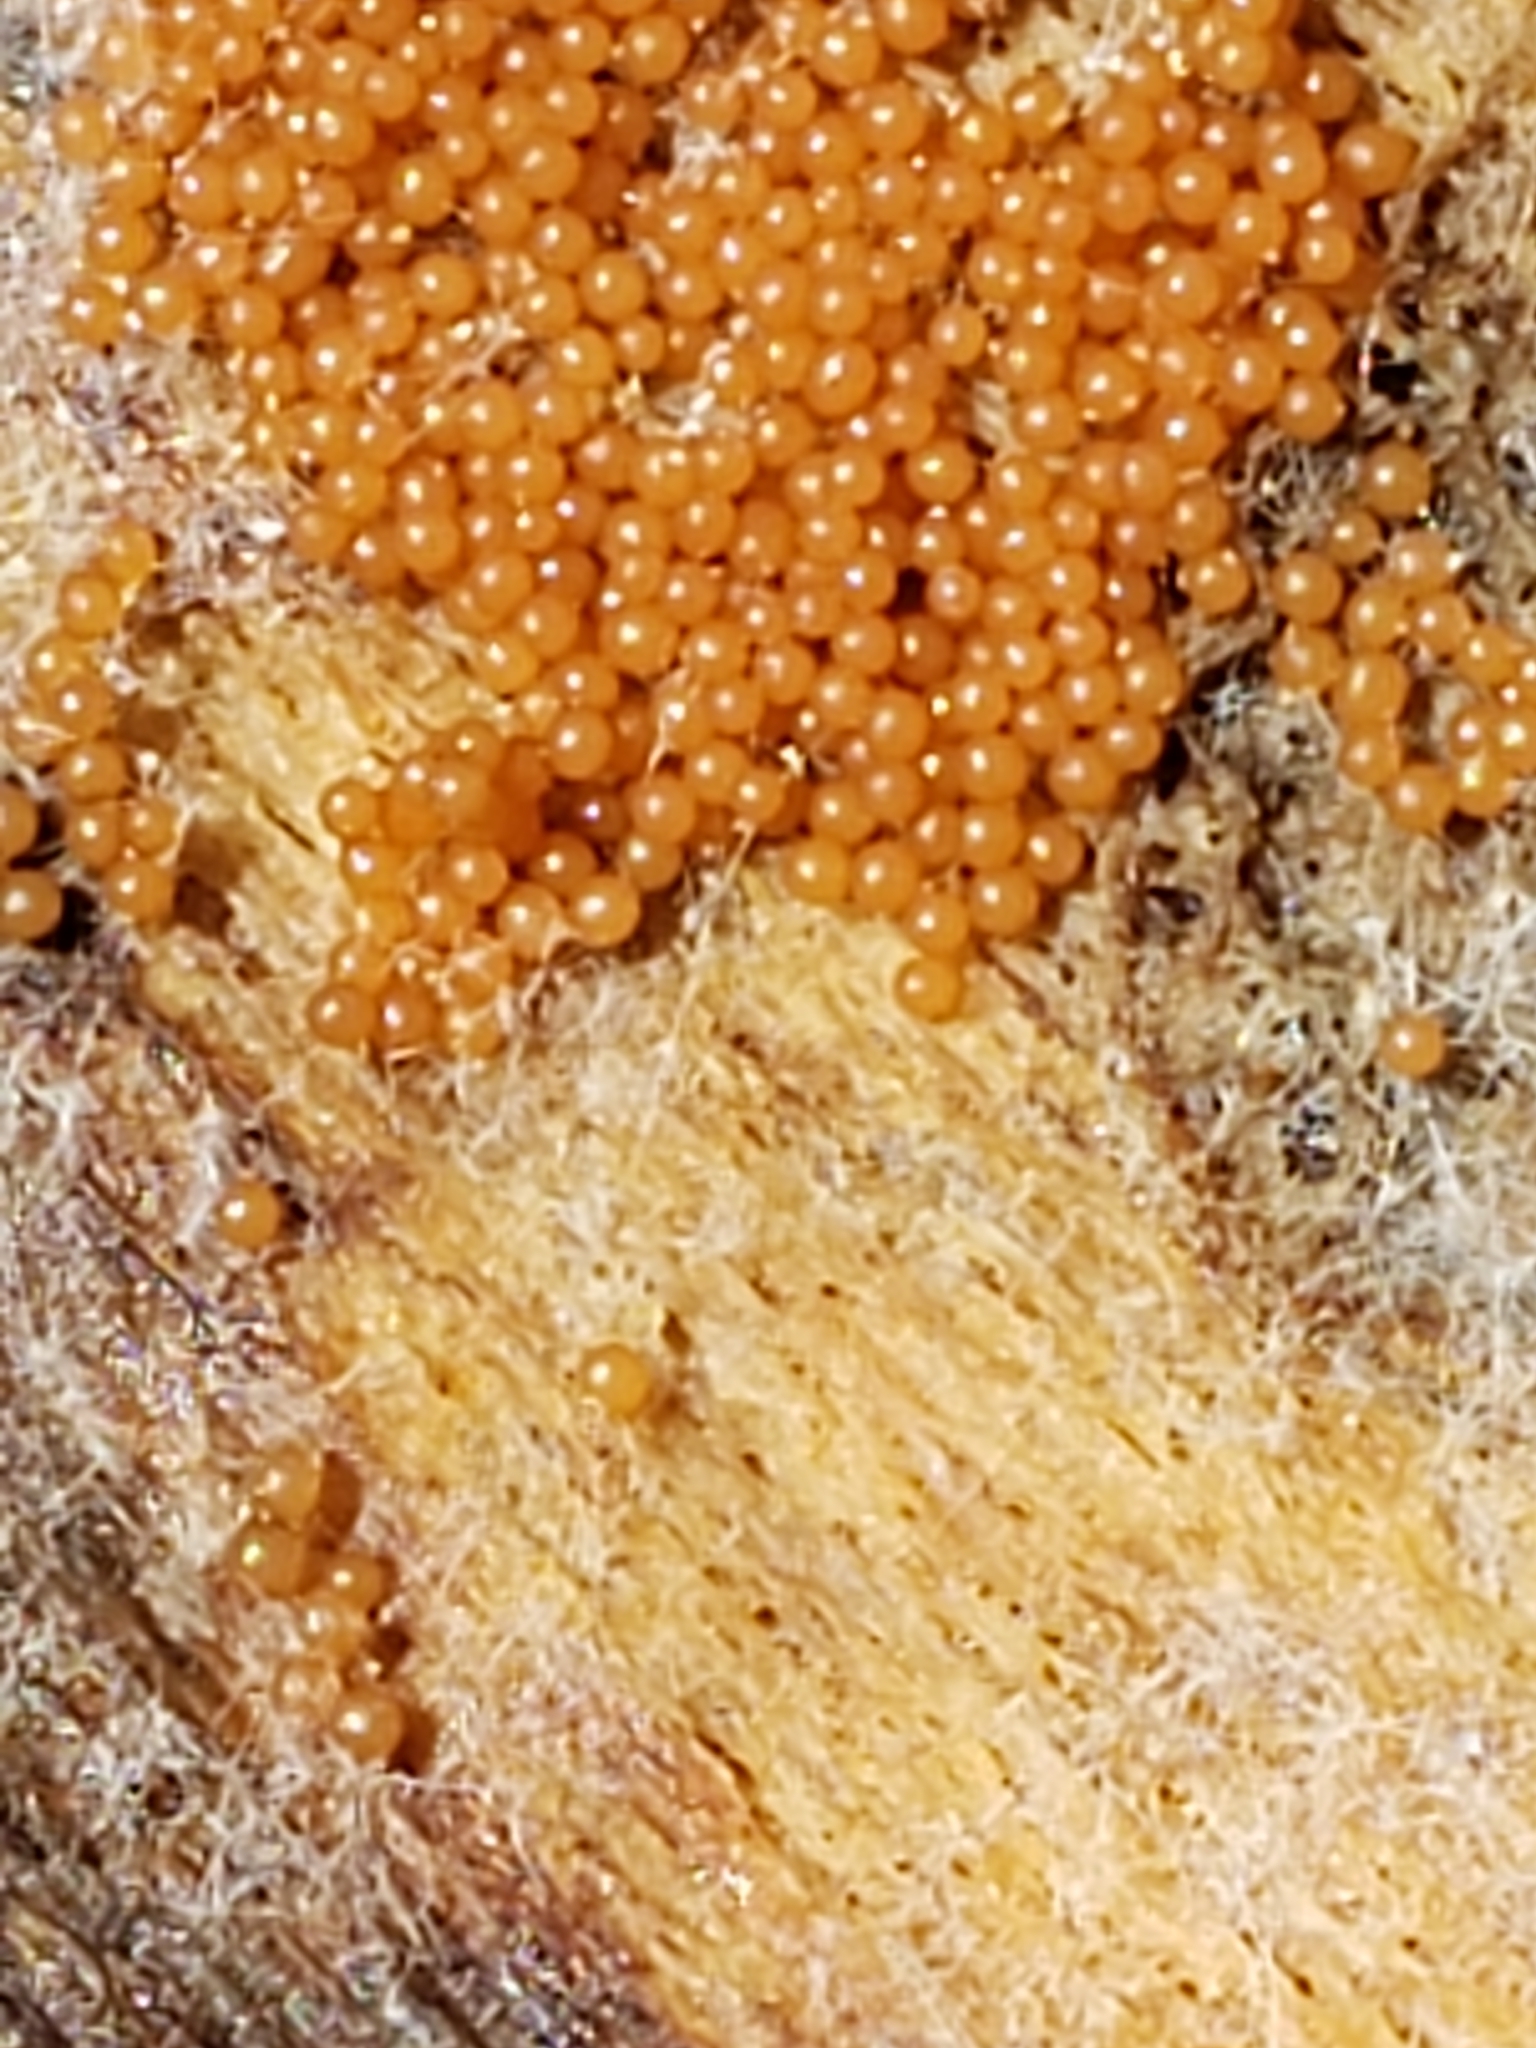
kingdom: Fungi
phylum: Ascomycota
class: Sordariomycetes
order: Hypocreales
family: Nectriaceae
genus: Hydropisphaera
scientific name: Hydropisphaera peziza
